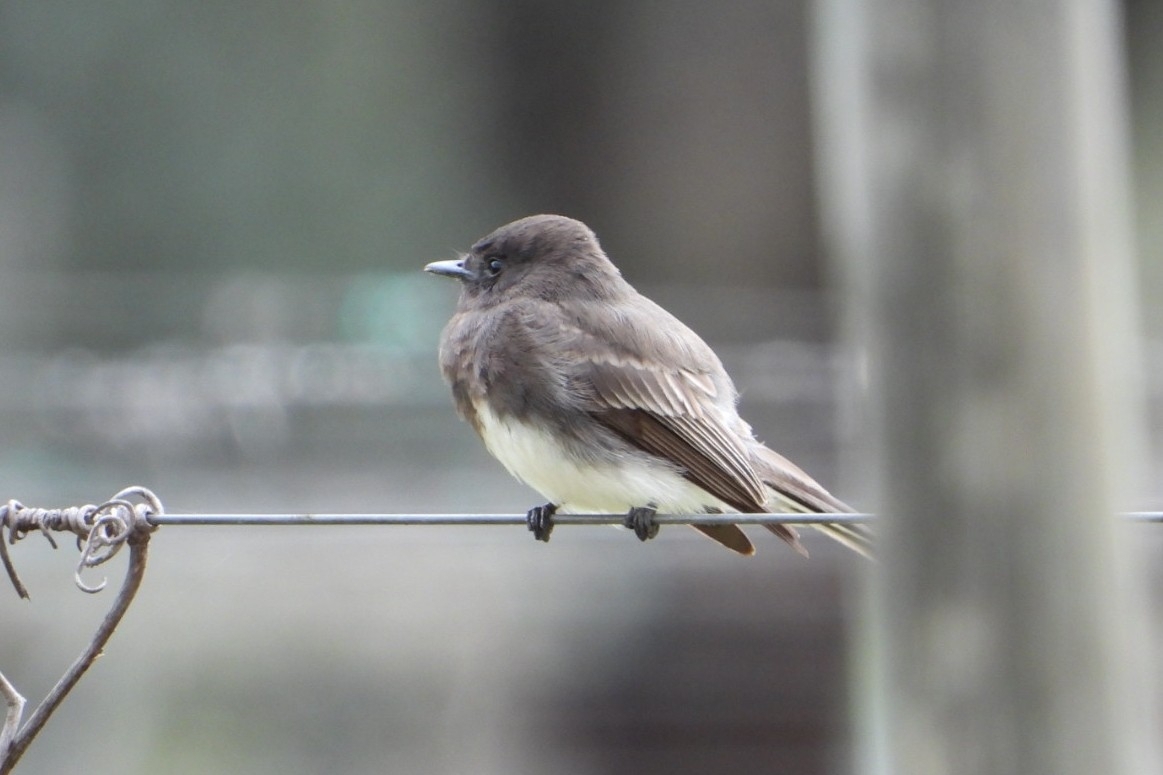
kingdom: Animalia
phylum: Chordata
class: Aves
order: Passeriformes
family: Tyrannidae
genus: Sayornis
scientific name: Sayornis nigricans
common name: Black phoebe
